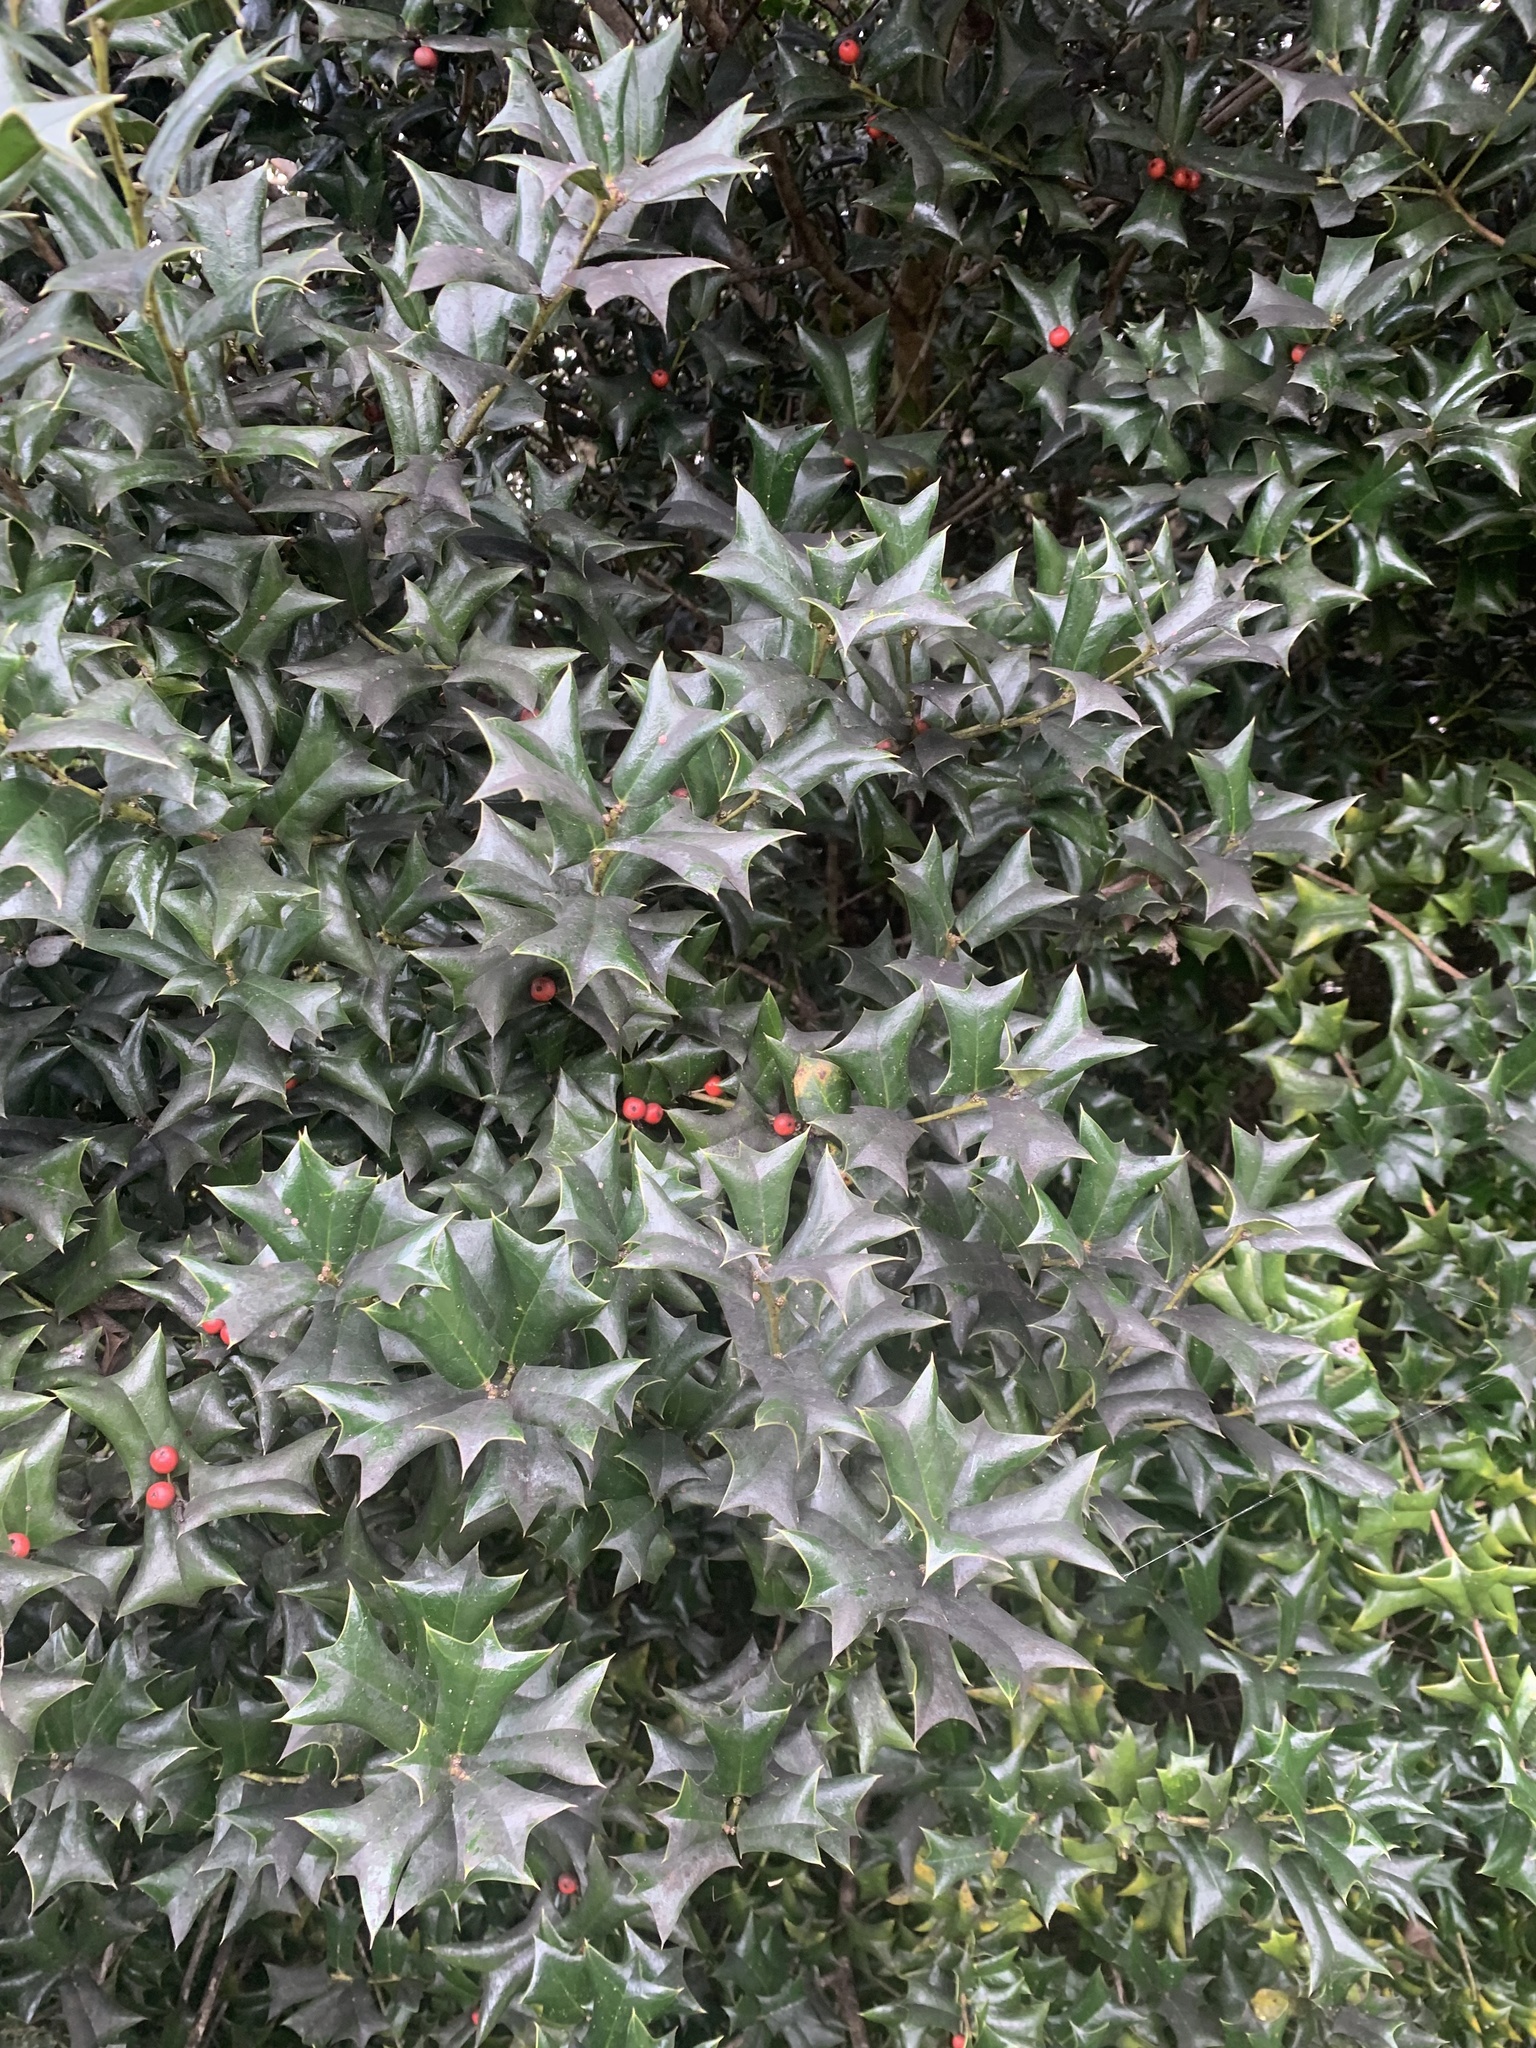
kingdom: Plantae
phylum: Tracheophyta
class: Magnoliopsida
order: Aquifoliales
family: Aquifoliaceae
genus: Ilex
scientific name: Ilex aquifolium
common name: English holly
